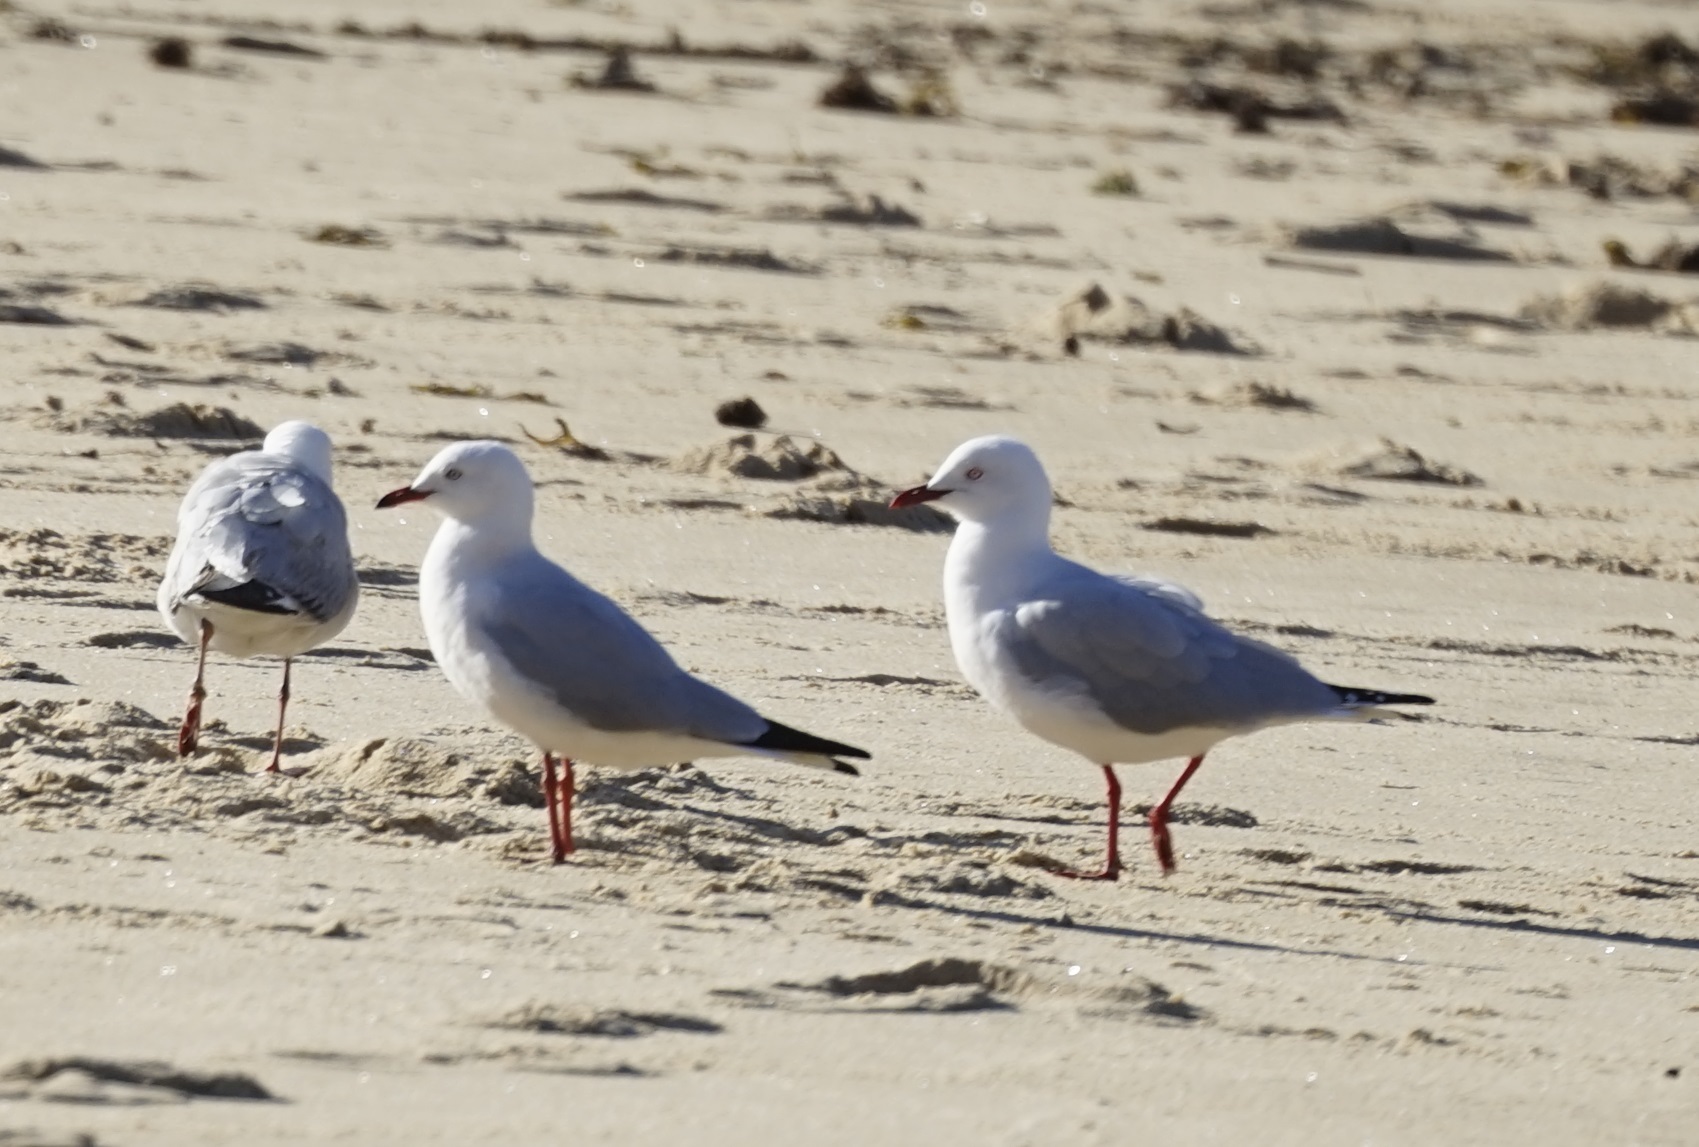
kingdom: Animalia
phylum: Chordata
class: Aves
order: Charadriiformes
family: Laridae
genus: Chroicocephalus
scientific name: Chroicocephalus novaehollandiae
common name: Silver gull
